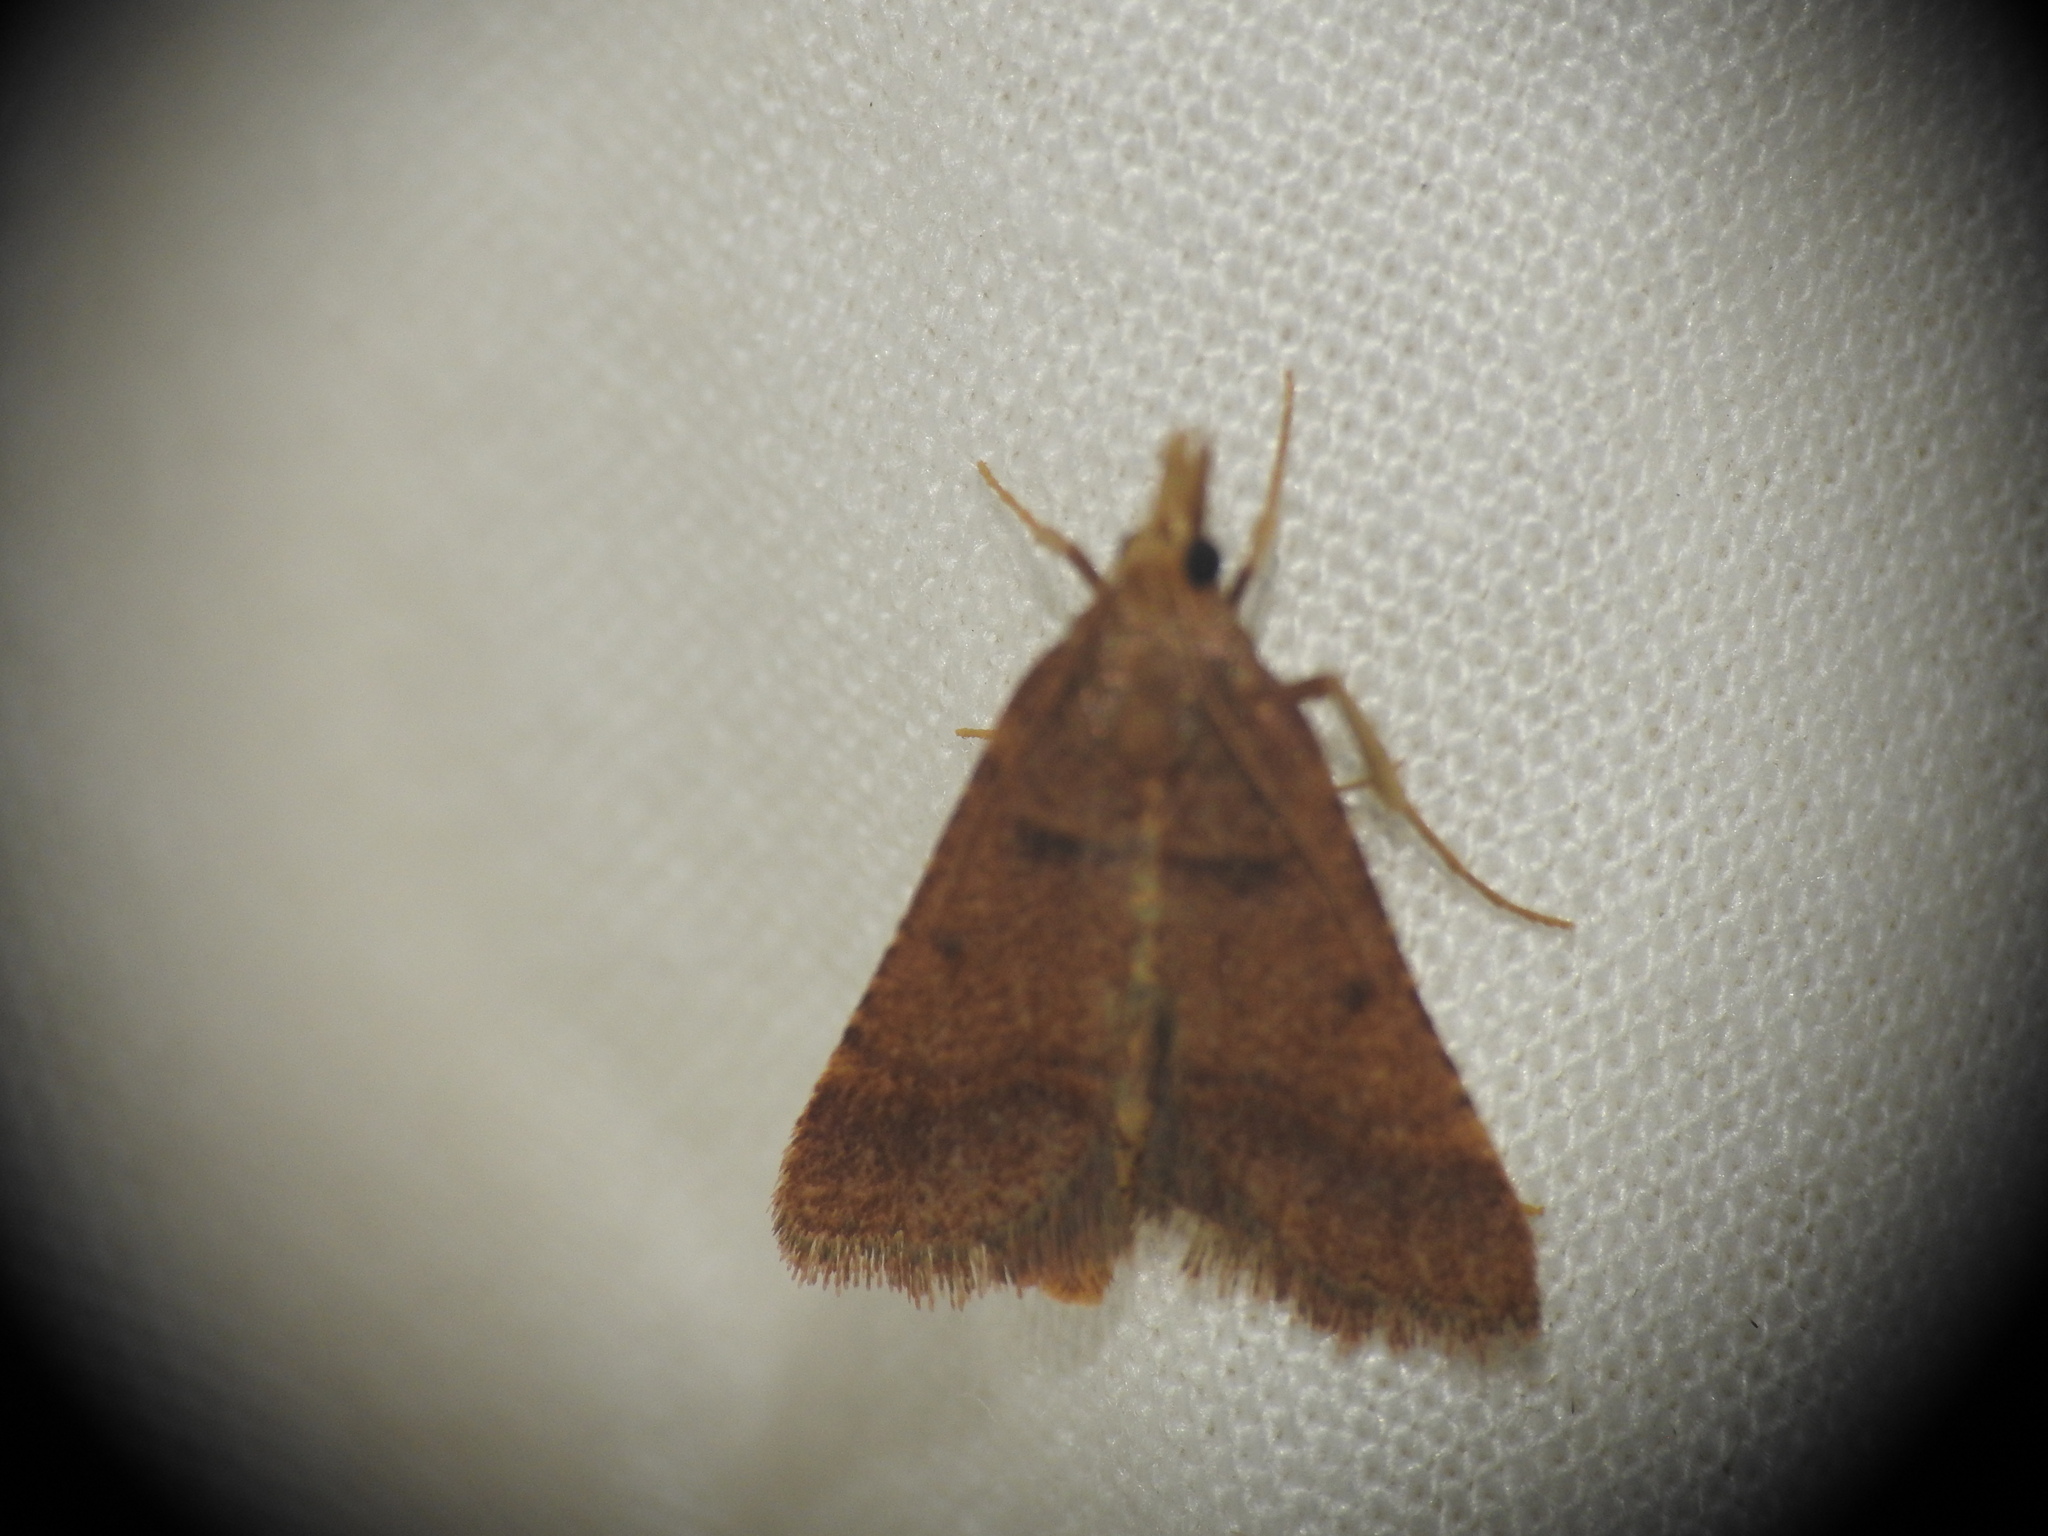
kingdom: Animalia
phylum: Arthropoda
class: Insecta
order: Lepidoptera
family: Pyralidae
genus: Stemmatophora
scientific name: Stemmatophora brunnealis
